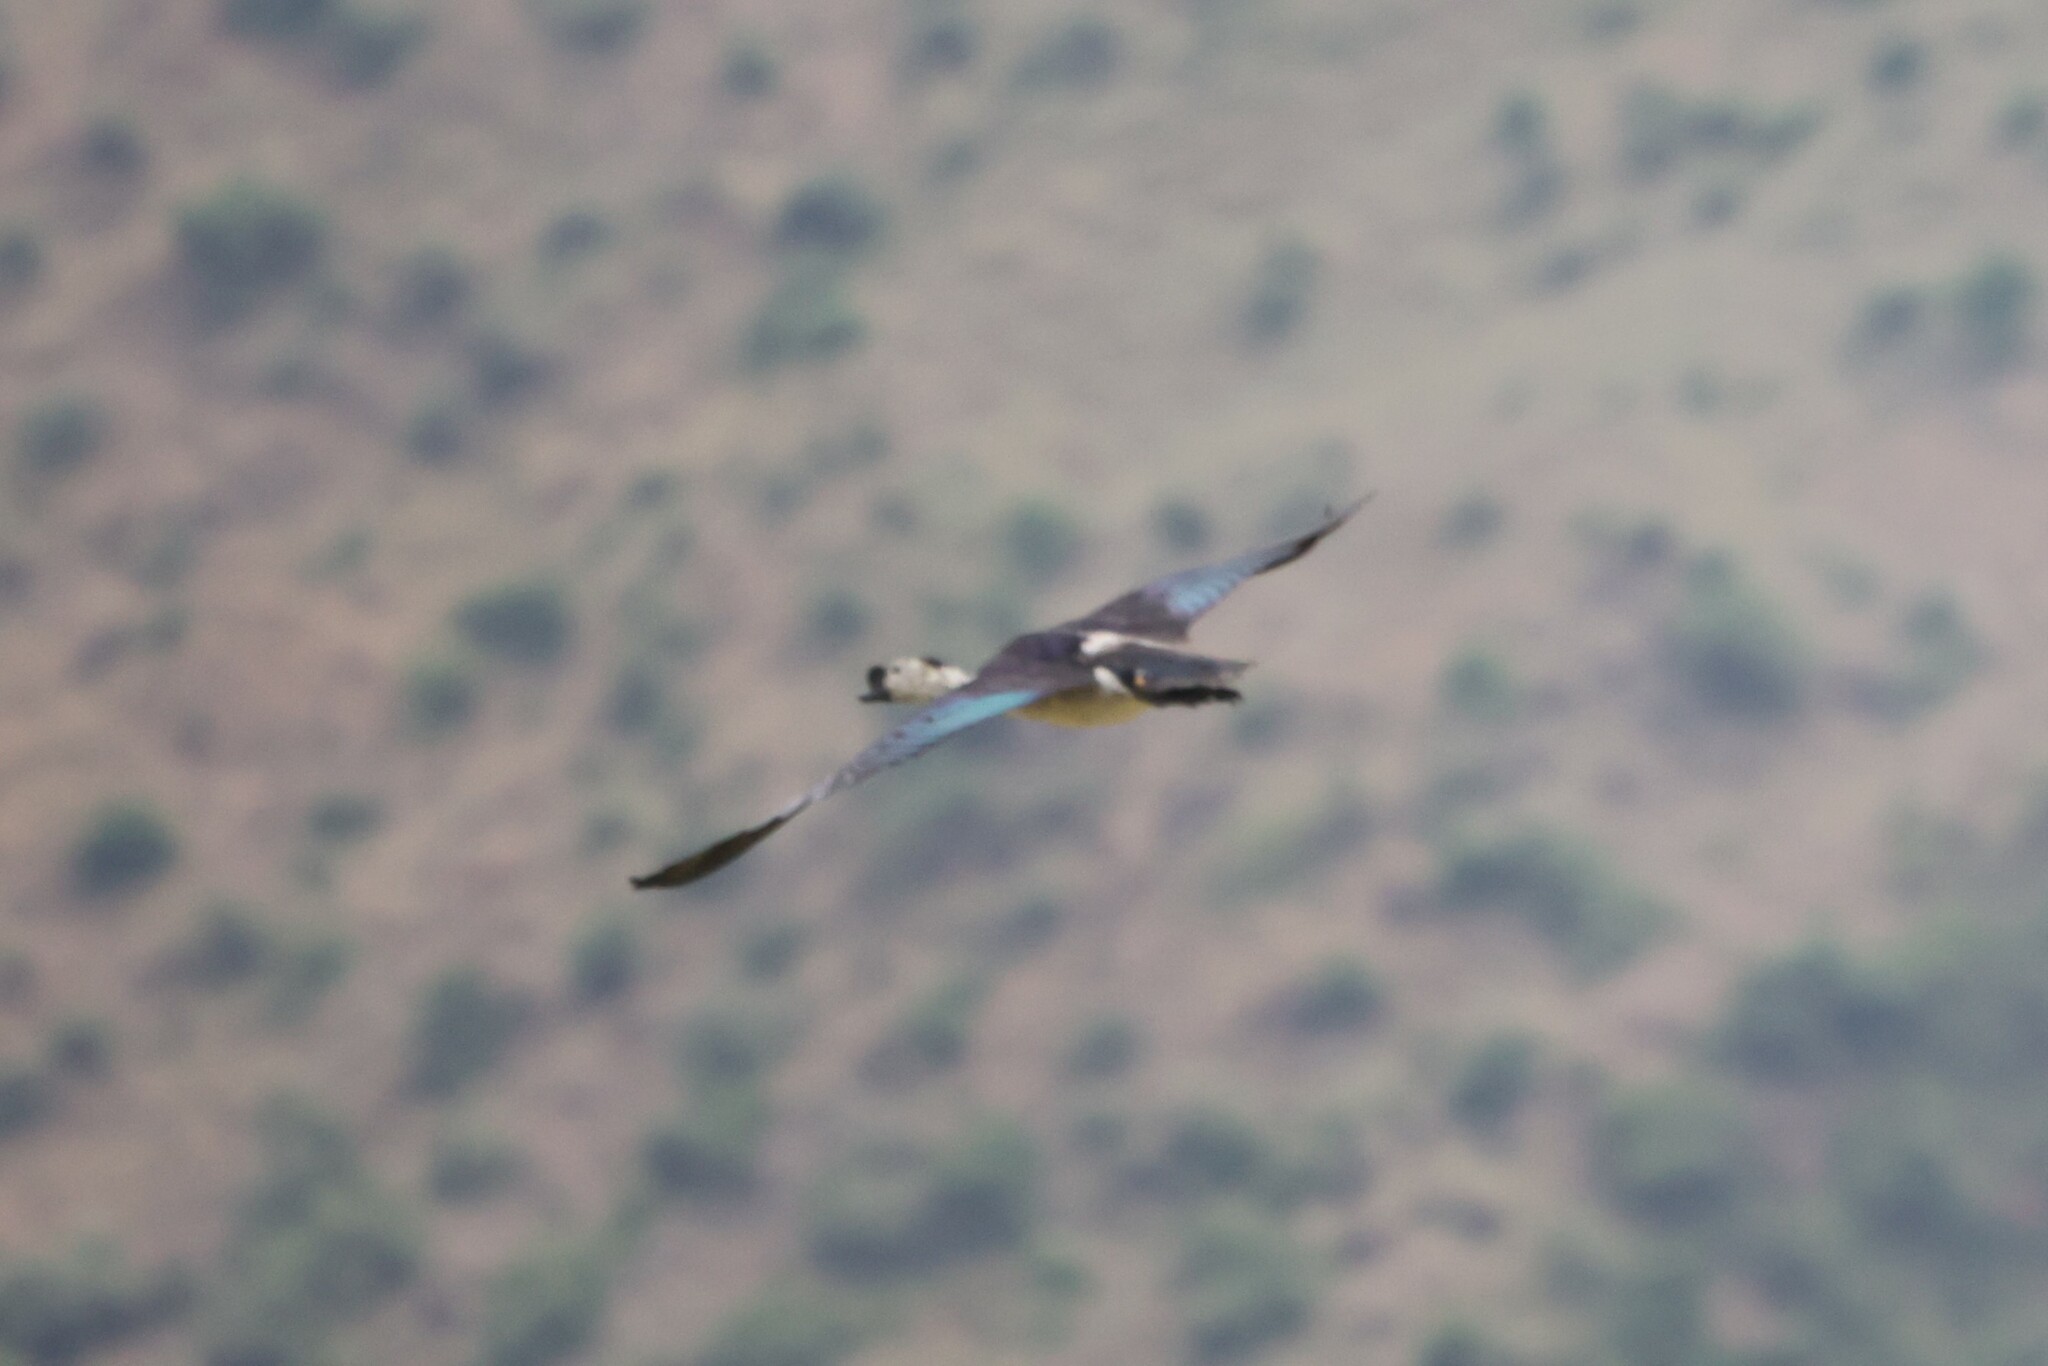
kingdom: Animalia
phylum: Chordata
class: Aves
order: Anseriformes
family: Anatidae
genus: Sarkidiornis
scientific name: Sarkidiornis melanotos
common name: Comb duck
